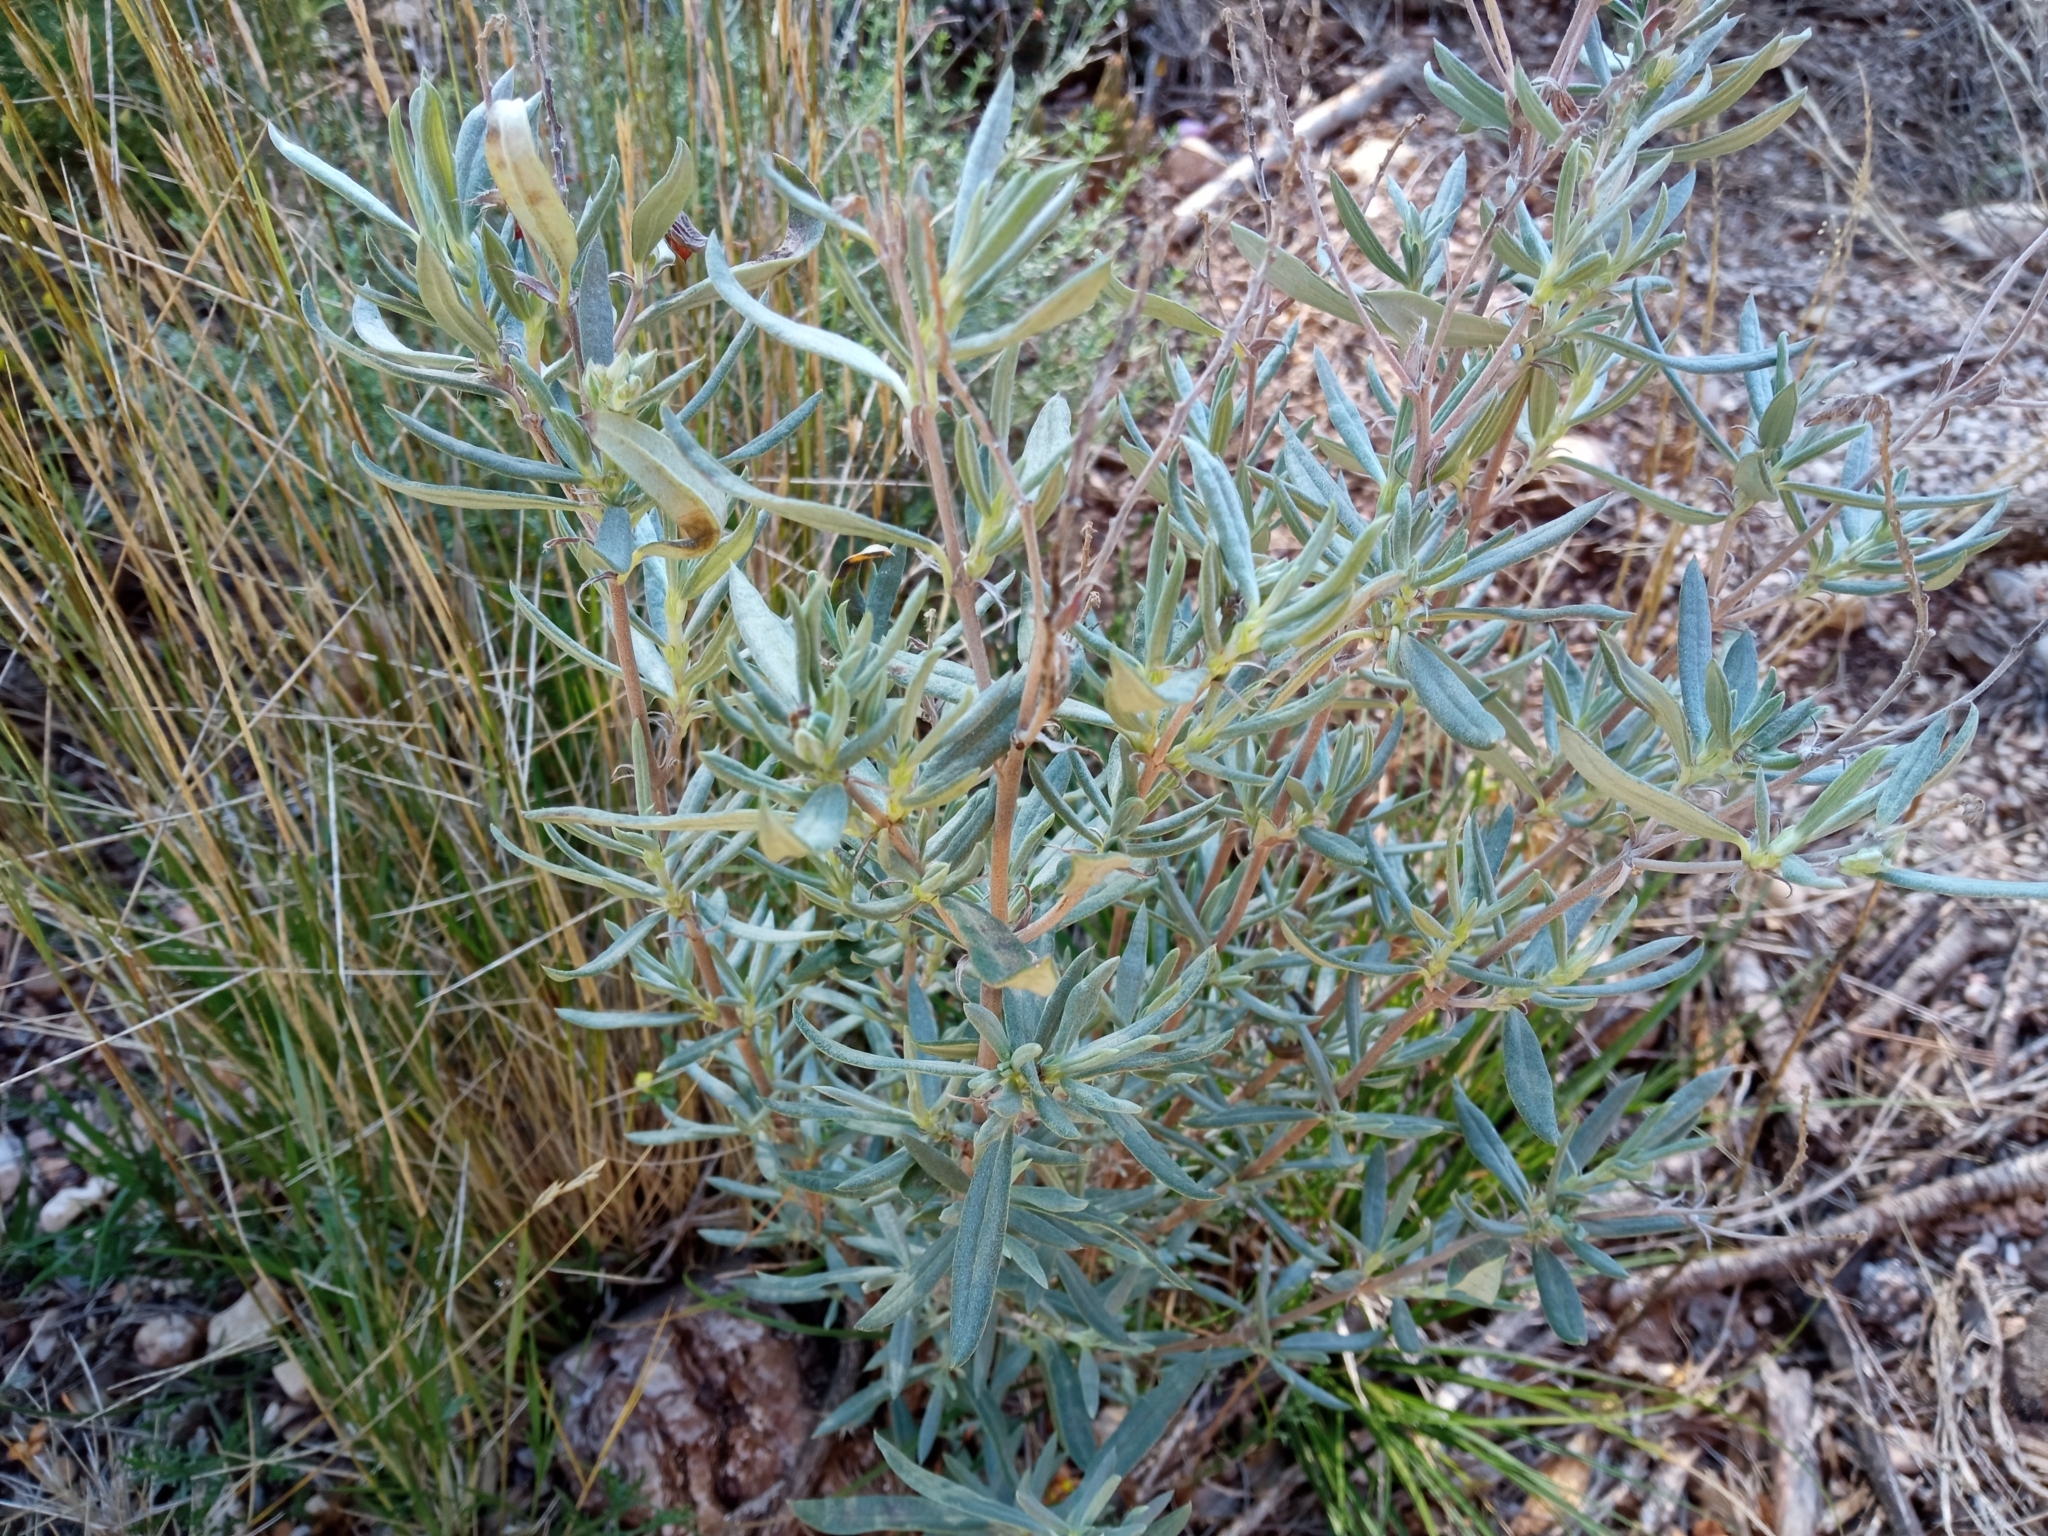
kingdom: Plantae
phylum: Tracheophyta
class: Magnoliopsida
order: Malvales
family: Cistaceae
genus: Helianthemum
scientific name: Helianthemum syriacum
